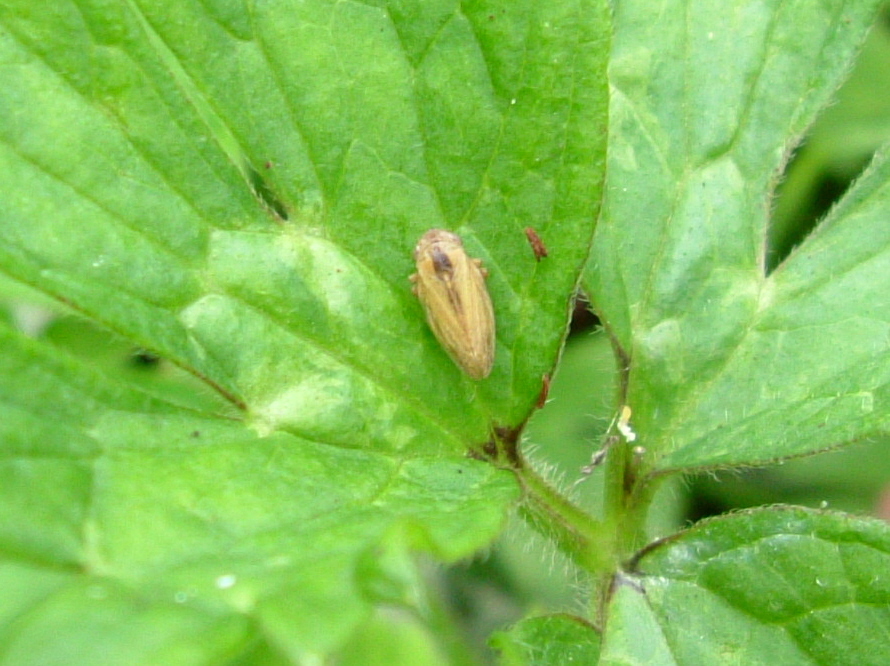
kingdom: Animalia
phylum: Arthropoda
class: Insecta
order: Hemiptera
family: Aphrophoridae
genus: Philaenus
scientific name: Philaenus spumarius
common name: Meadow spittlebug
